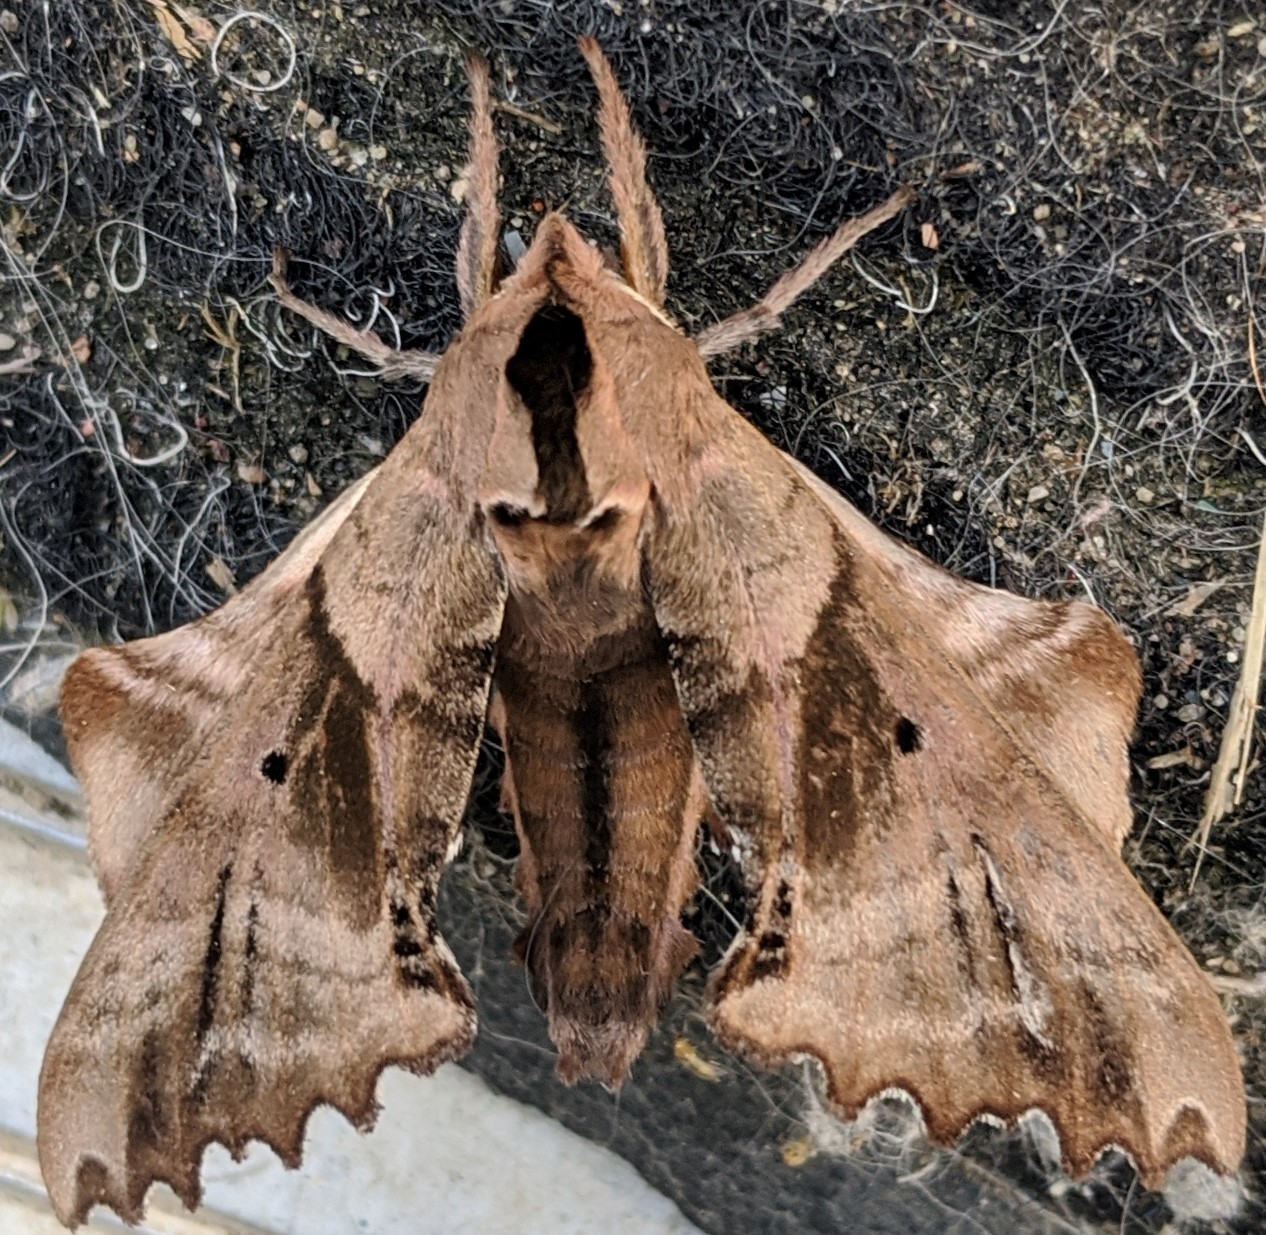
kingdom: Animalia
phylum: Arthropoda
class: Insecta
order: Lepidoptera
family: Sphingidae
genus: Paonias
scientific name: Paonias excaecata
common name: Blind-eyed sphinx
